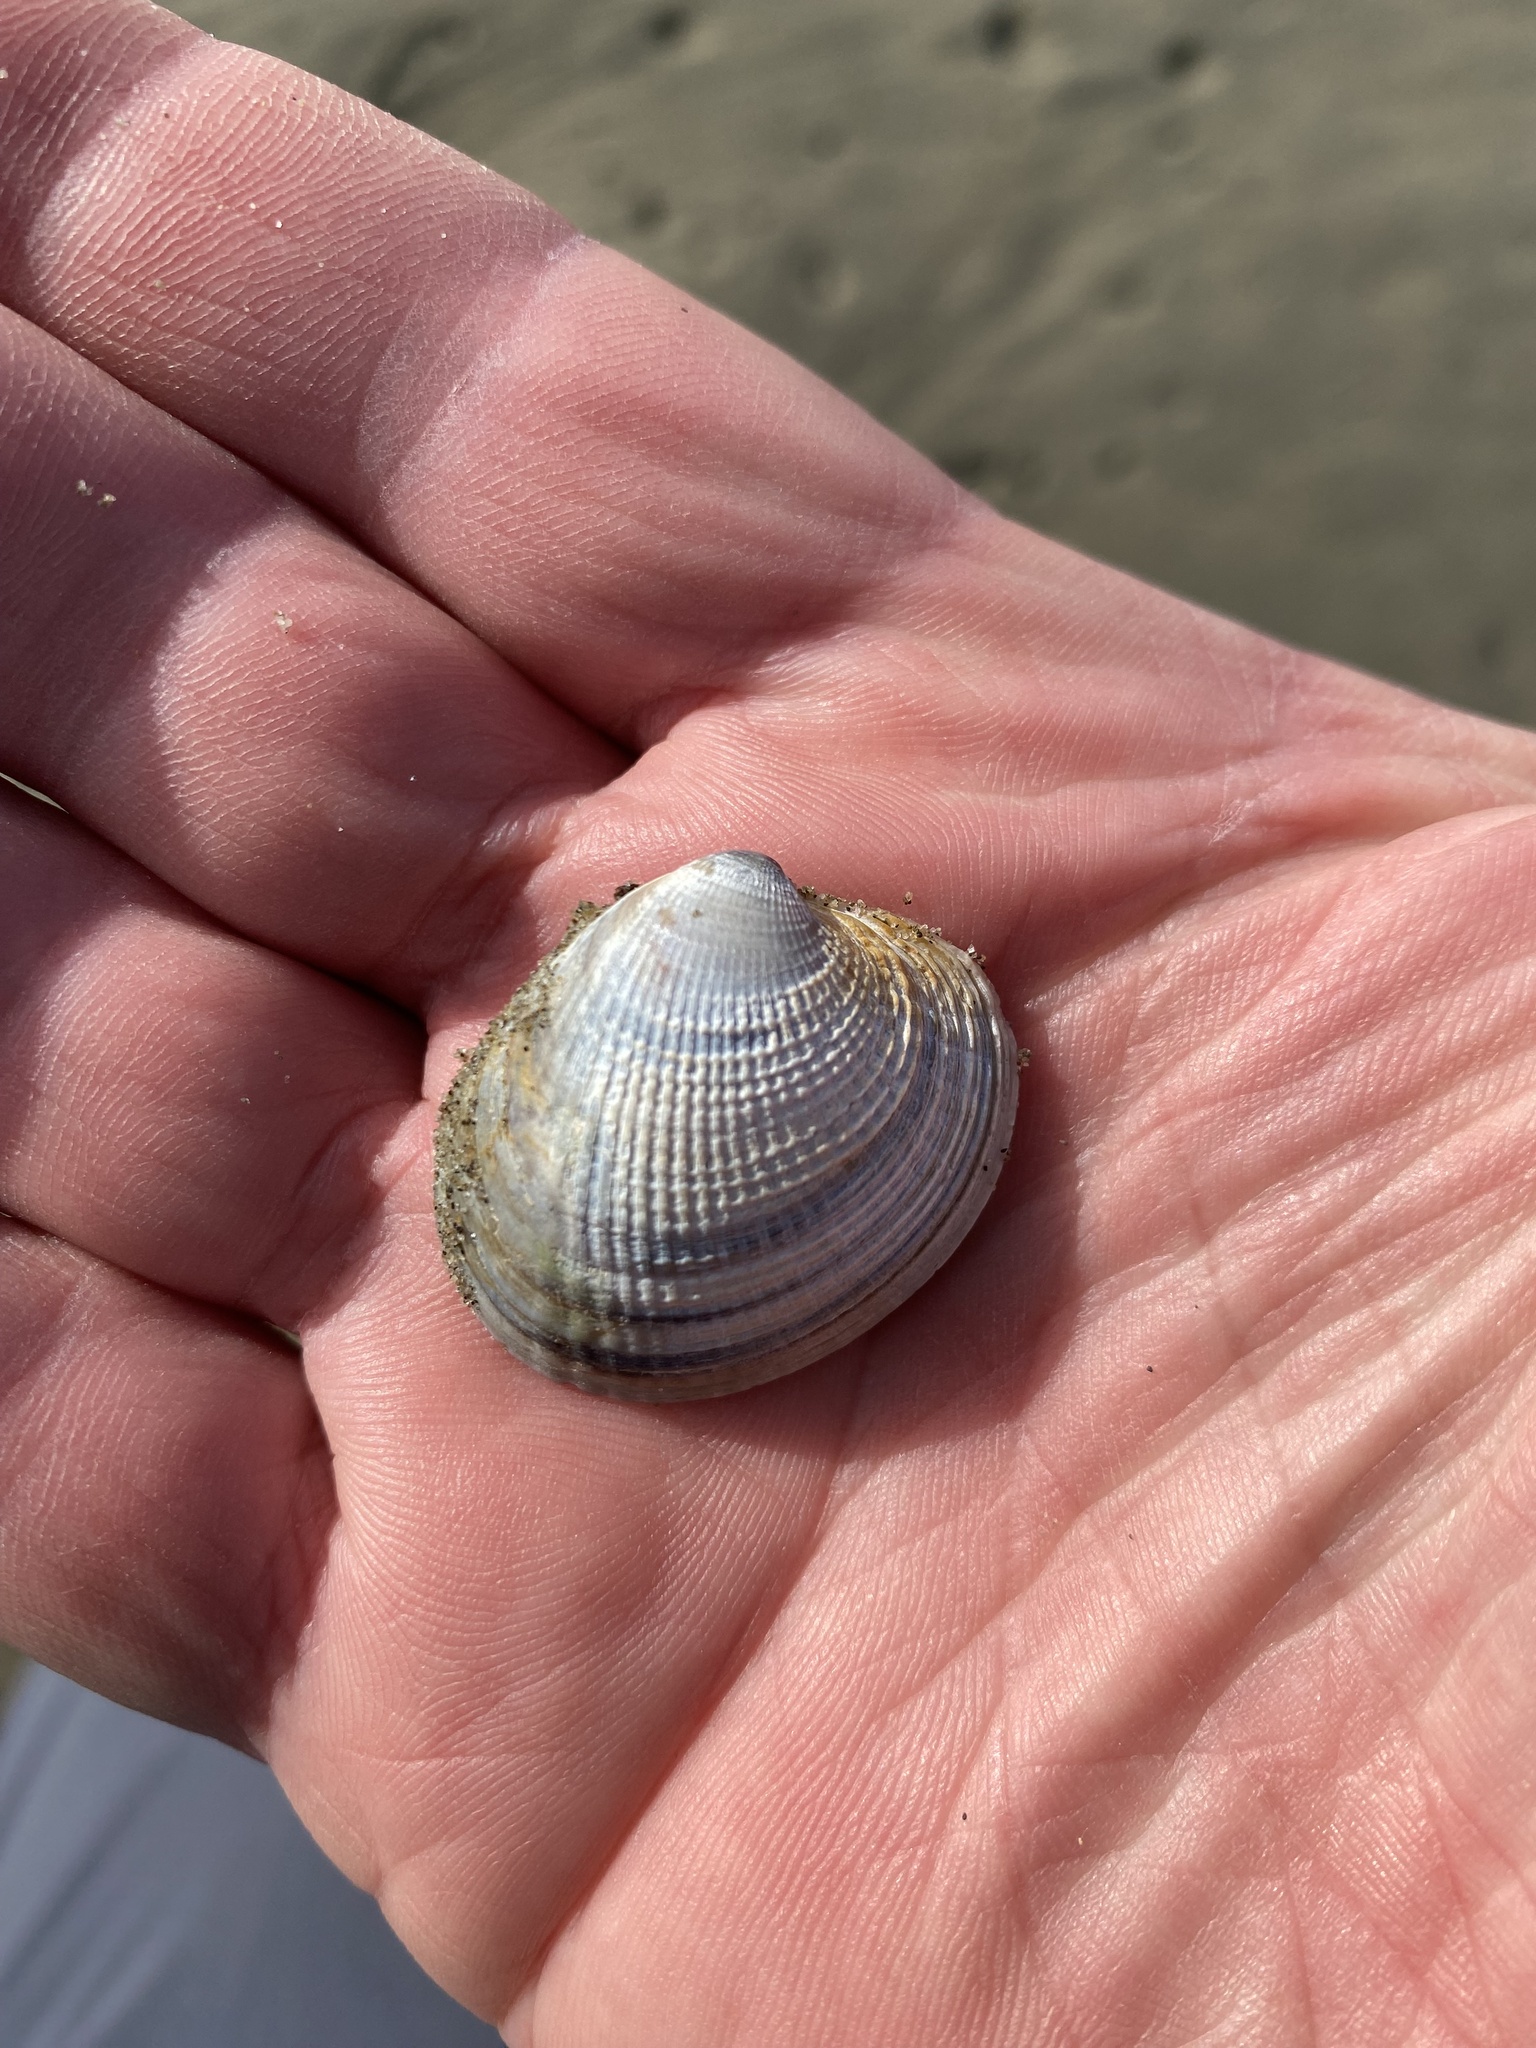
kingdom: Animalia
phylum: Mollusca
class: Bivalvia
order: Venerida
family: Veneridae
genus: Austrovenus
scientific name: Austrovenus stutchburyi
